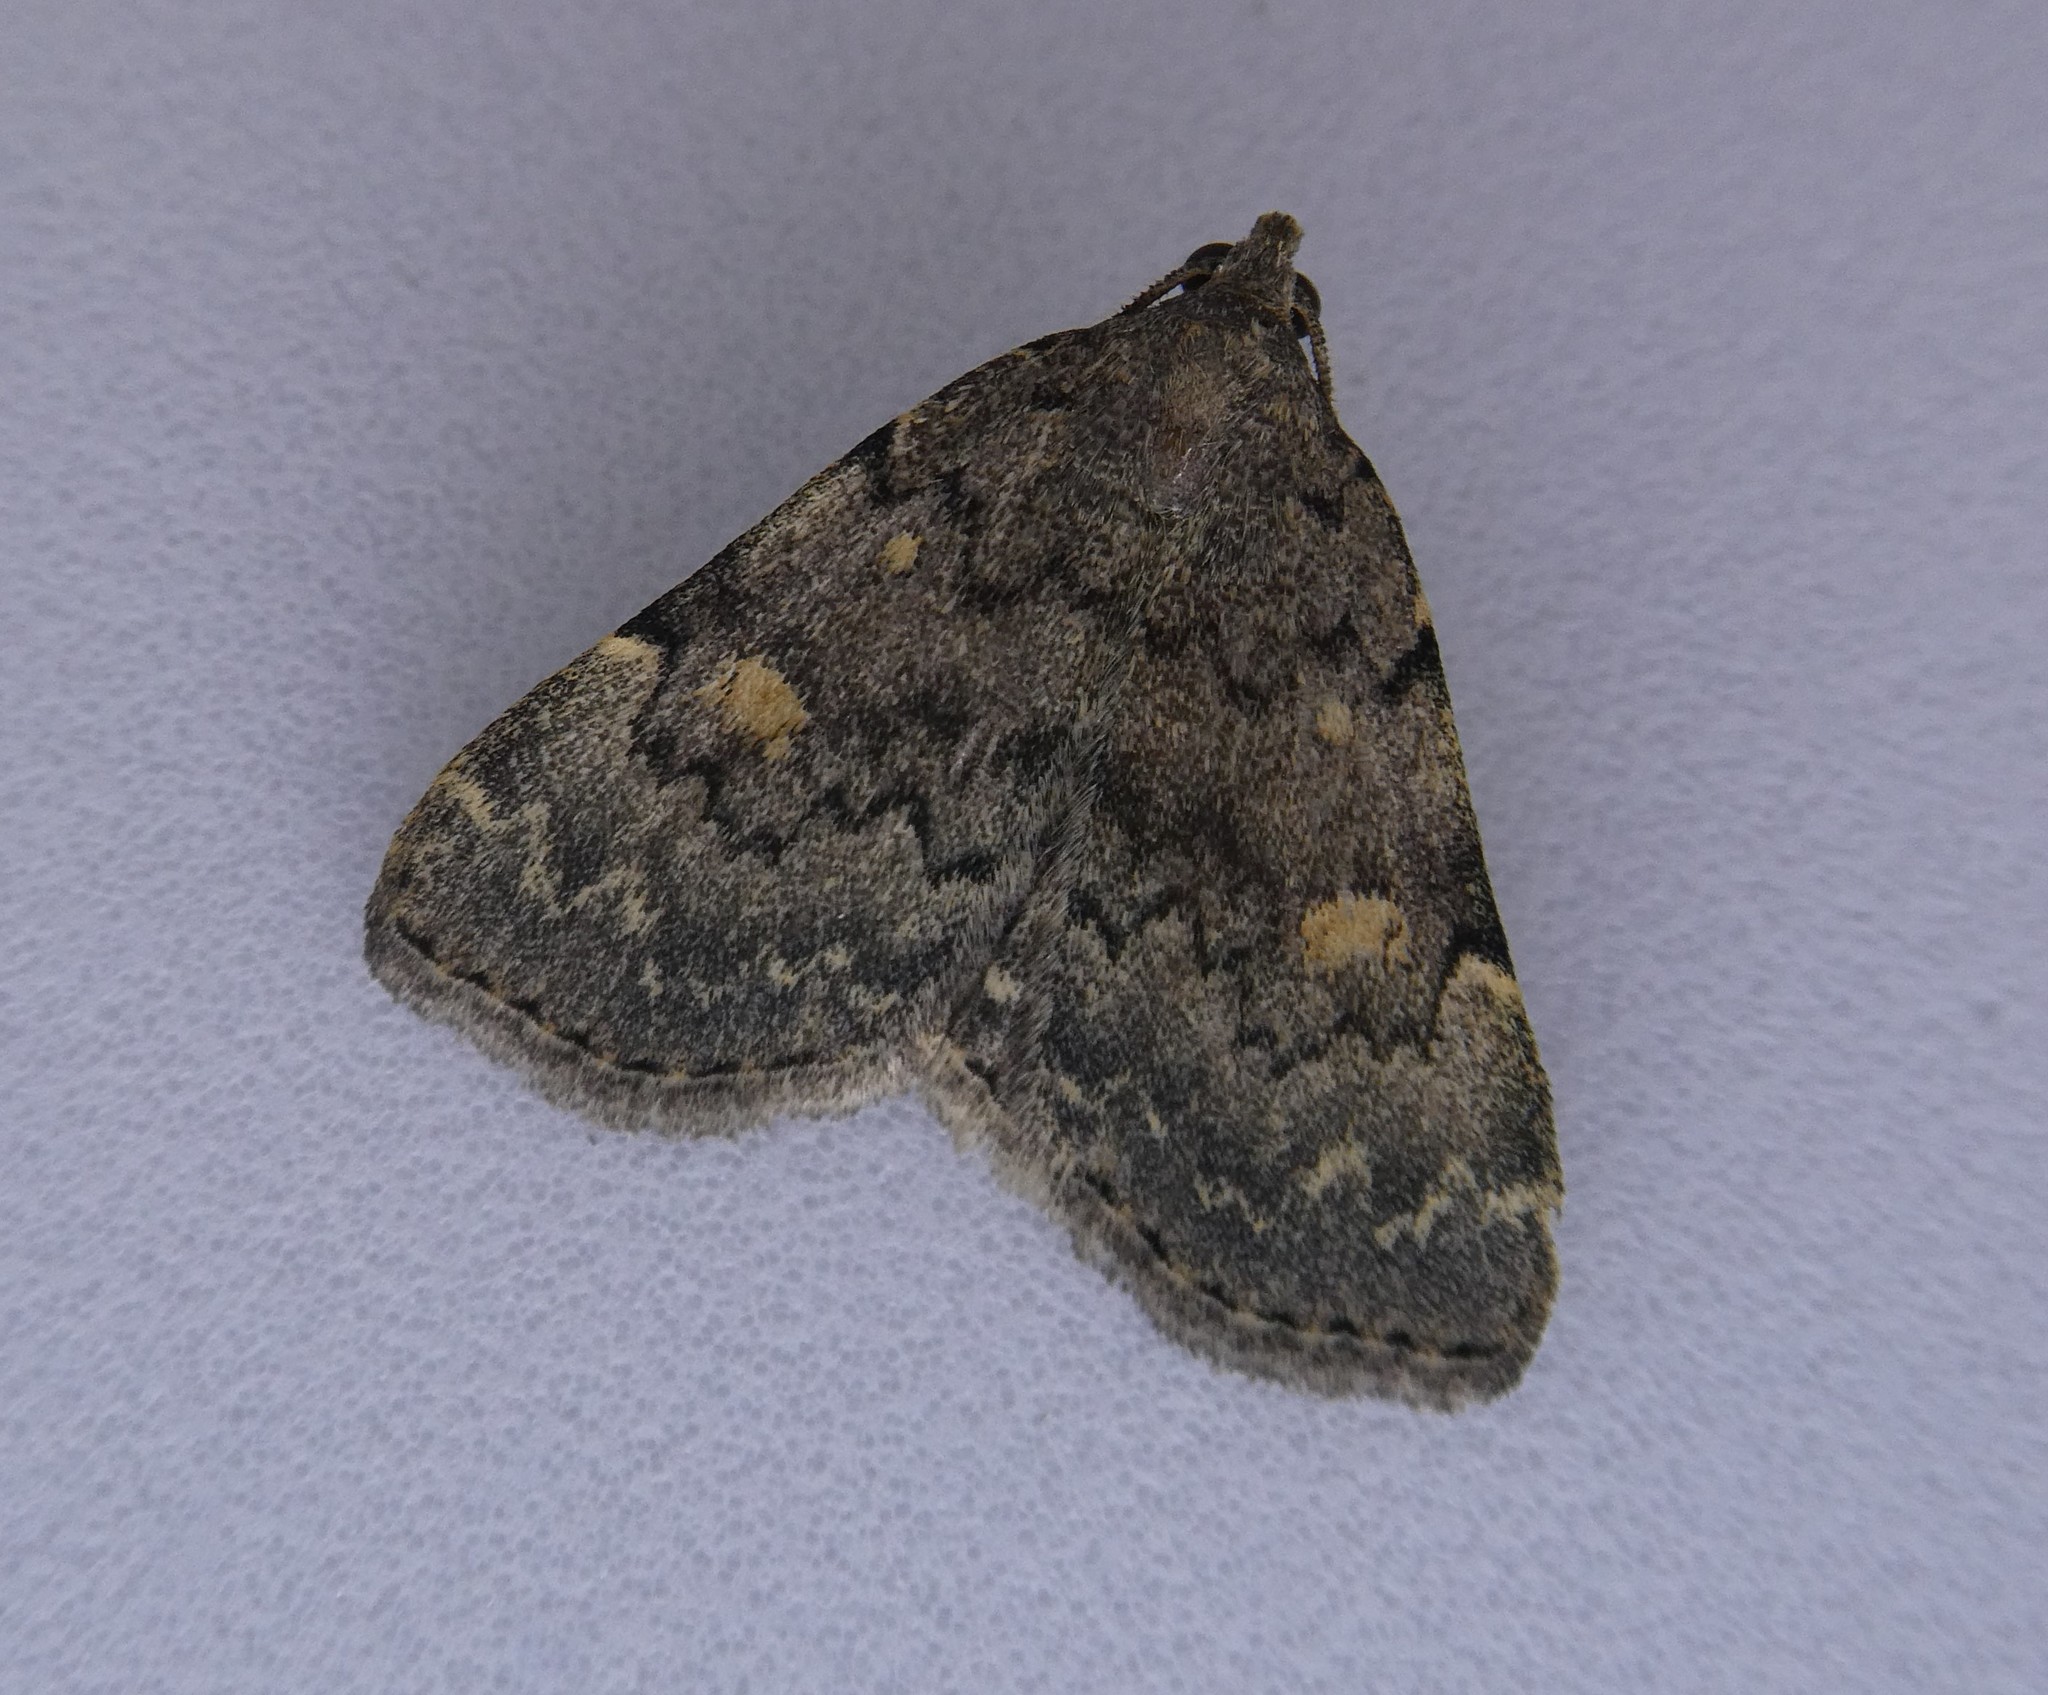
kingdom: Animalia
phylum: Arthropoda
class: Insecta
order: Lepidoptera
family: Erebidae
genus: Idia
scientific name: Idia aemula
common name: Common idia moth
